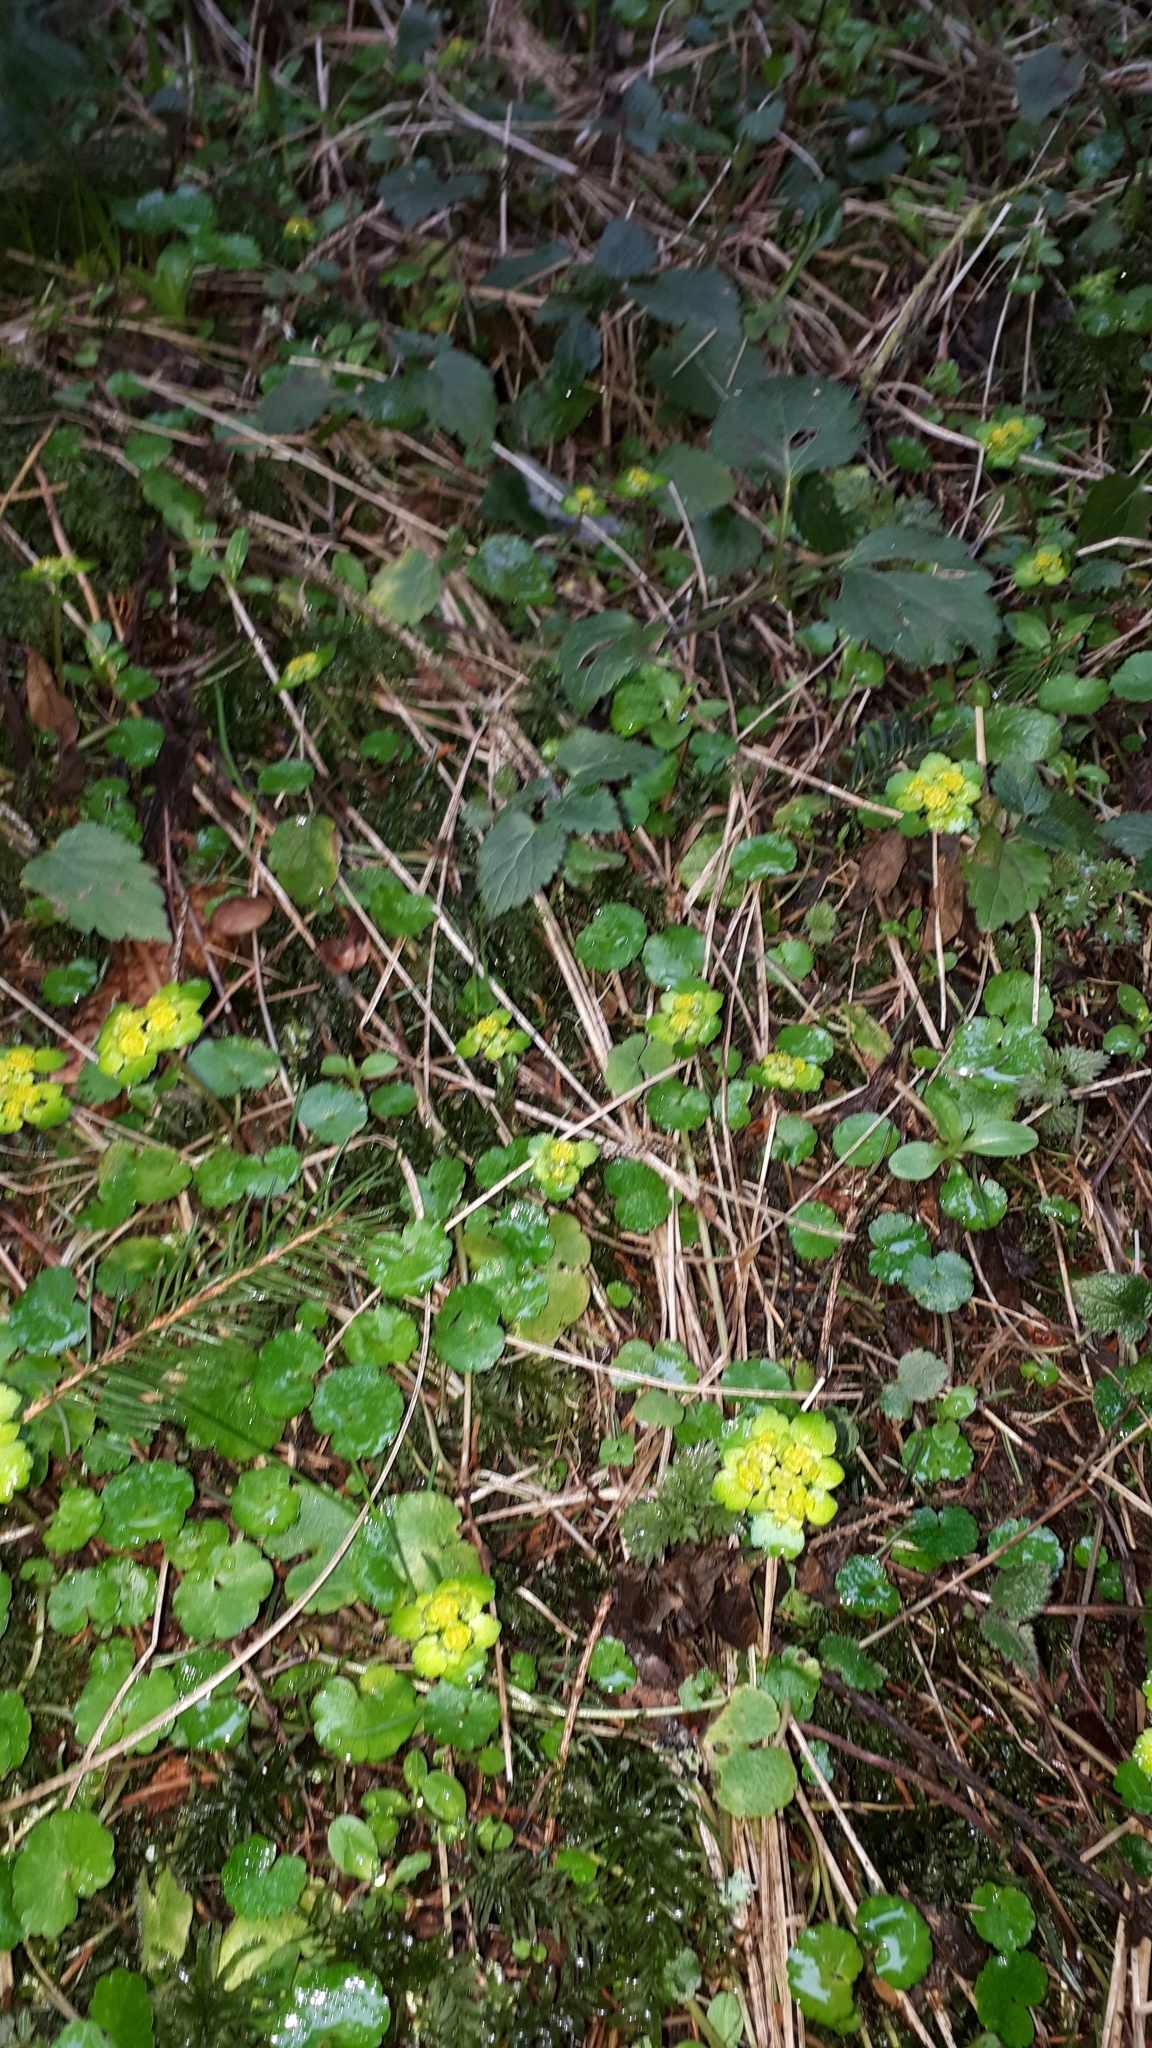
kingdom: Plantae
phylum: Tracheophyta
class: Magnoliopsida
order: Saxifragales
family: Saxifragaceae
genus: Chrysosplenium
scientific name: Chrysosplenium alternifolium
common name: Alternate-leaved golden-saxifrage
